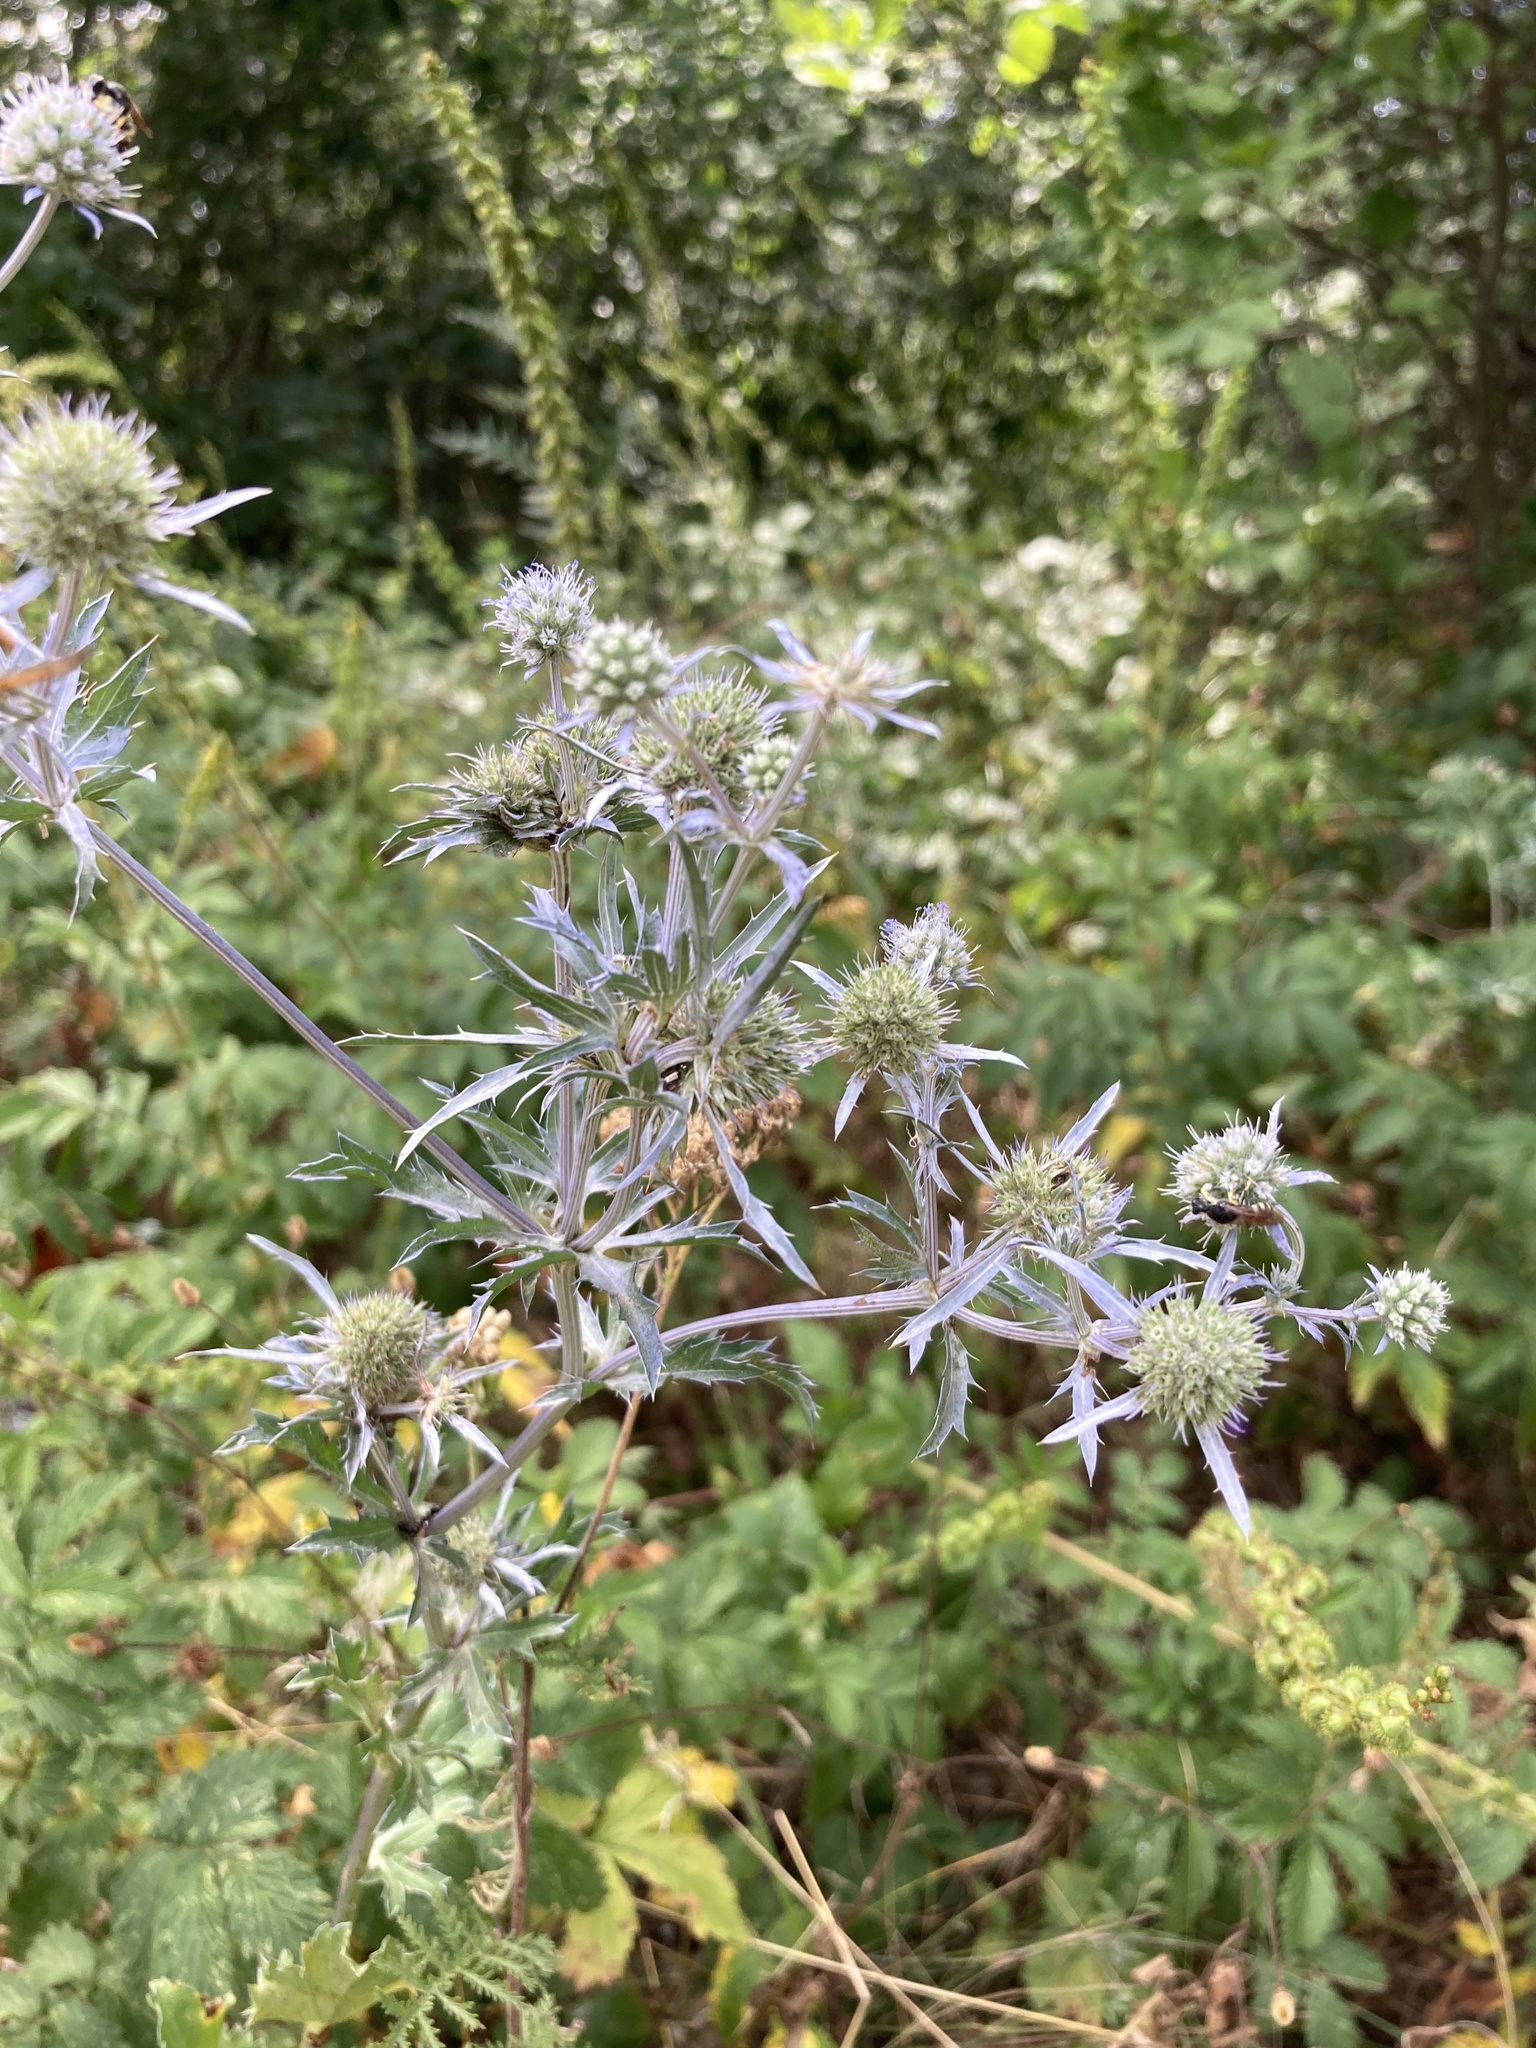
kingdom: Plantae
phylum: Tracheophyta
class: Magnoliopsida
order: Apiales
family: Apiaceae
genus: Eryngium
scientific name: Eryngium planum
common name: Blue eryngo
